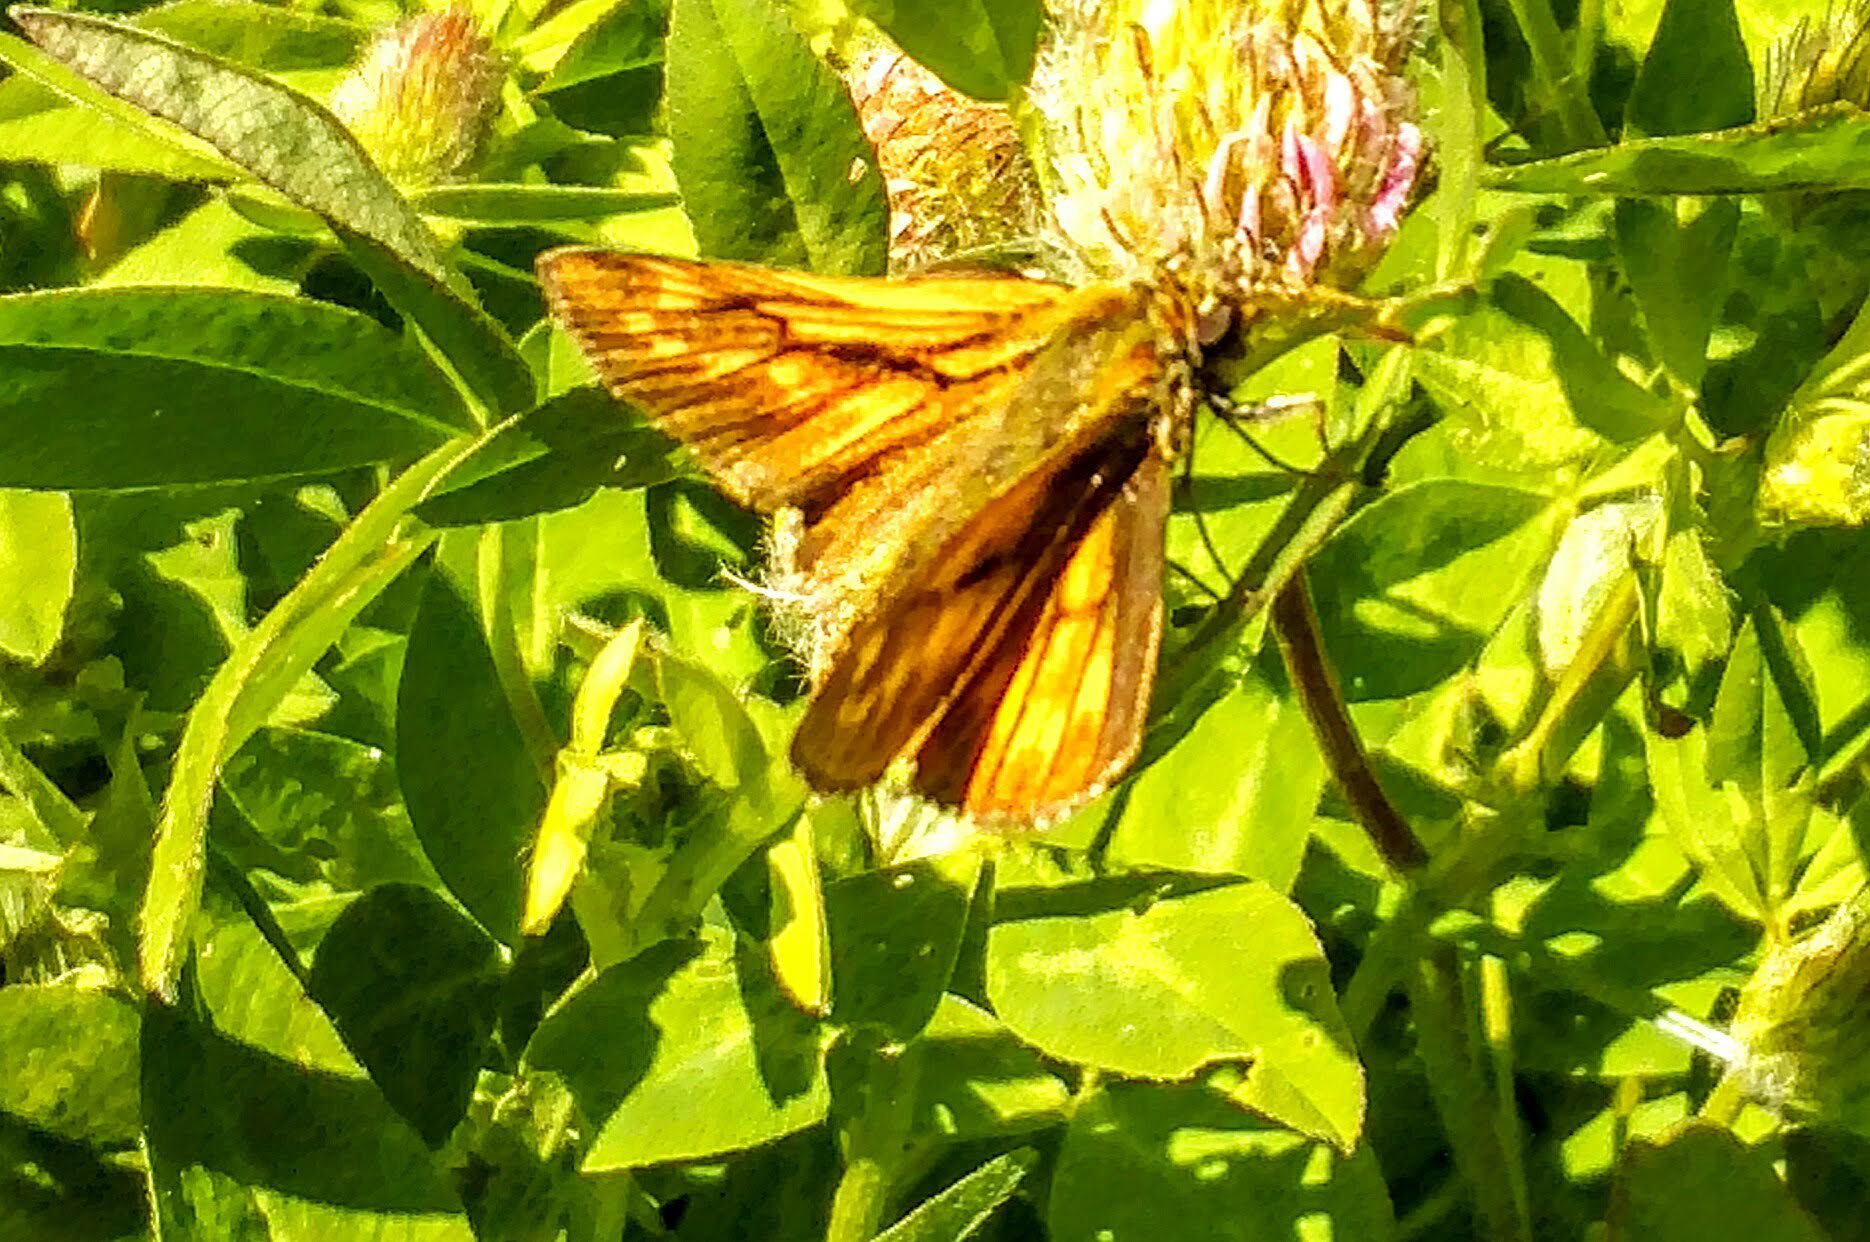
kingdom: Animalia
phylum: Arthropoda
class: Insecta
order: Lepidoptera
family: Hesperiidae
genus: Ochlodes
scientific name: Ochlodes venata
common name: Large skipper
